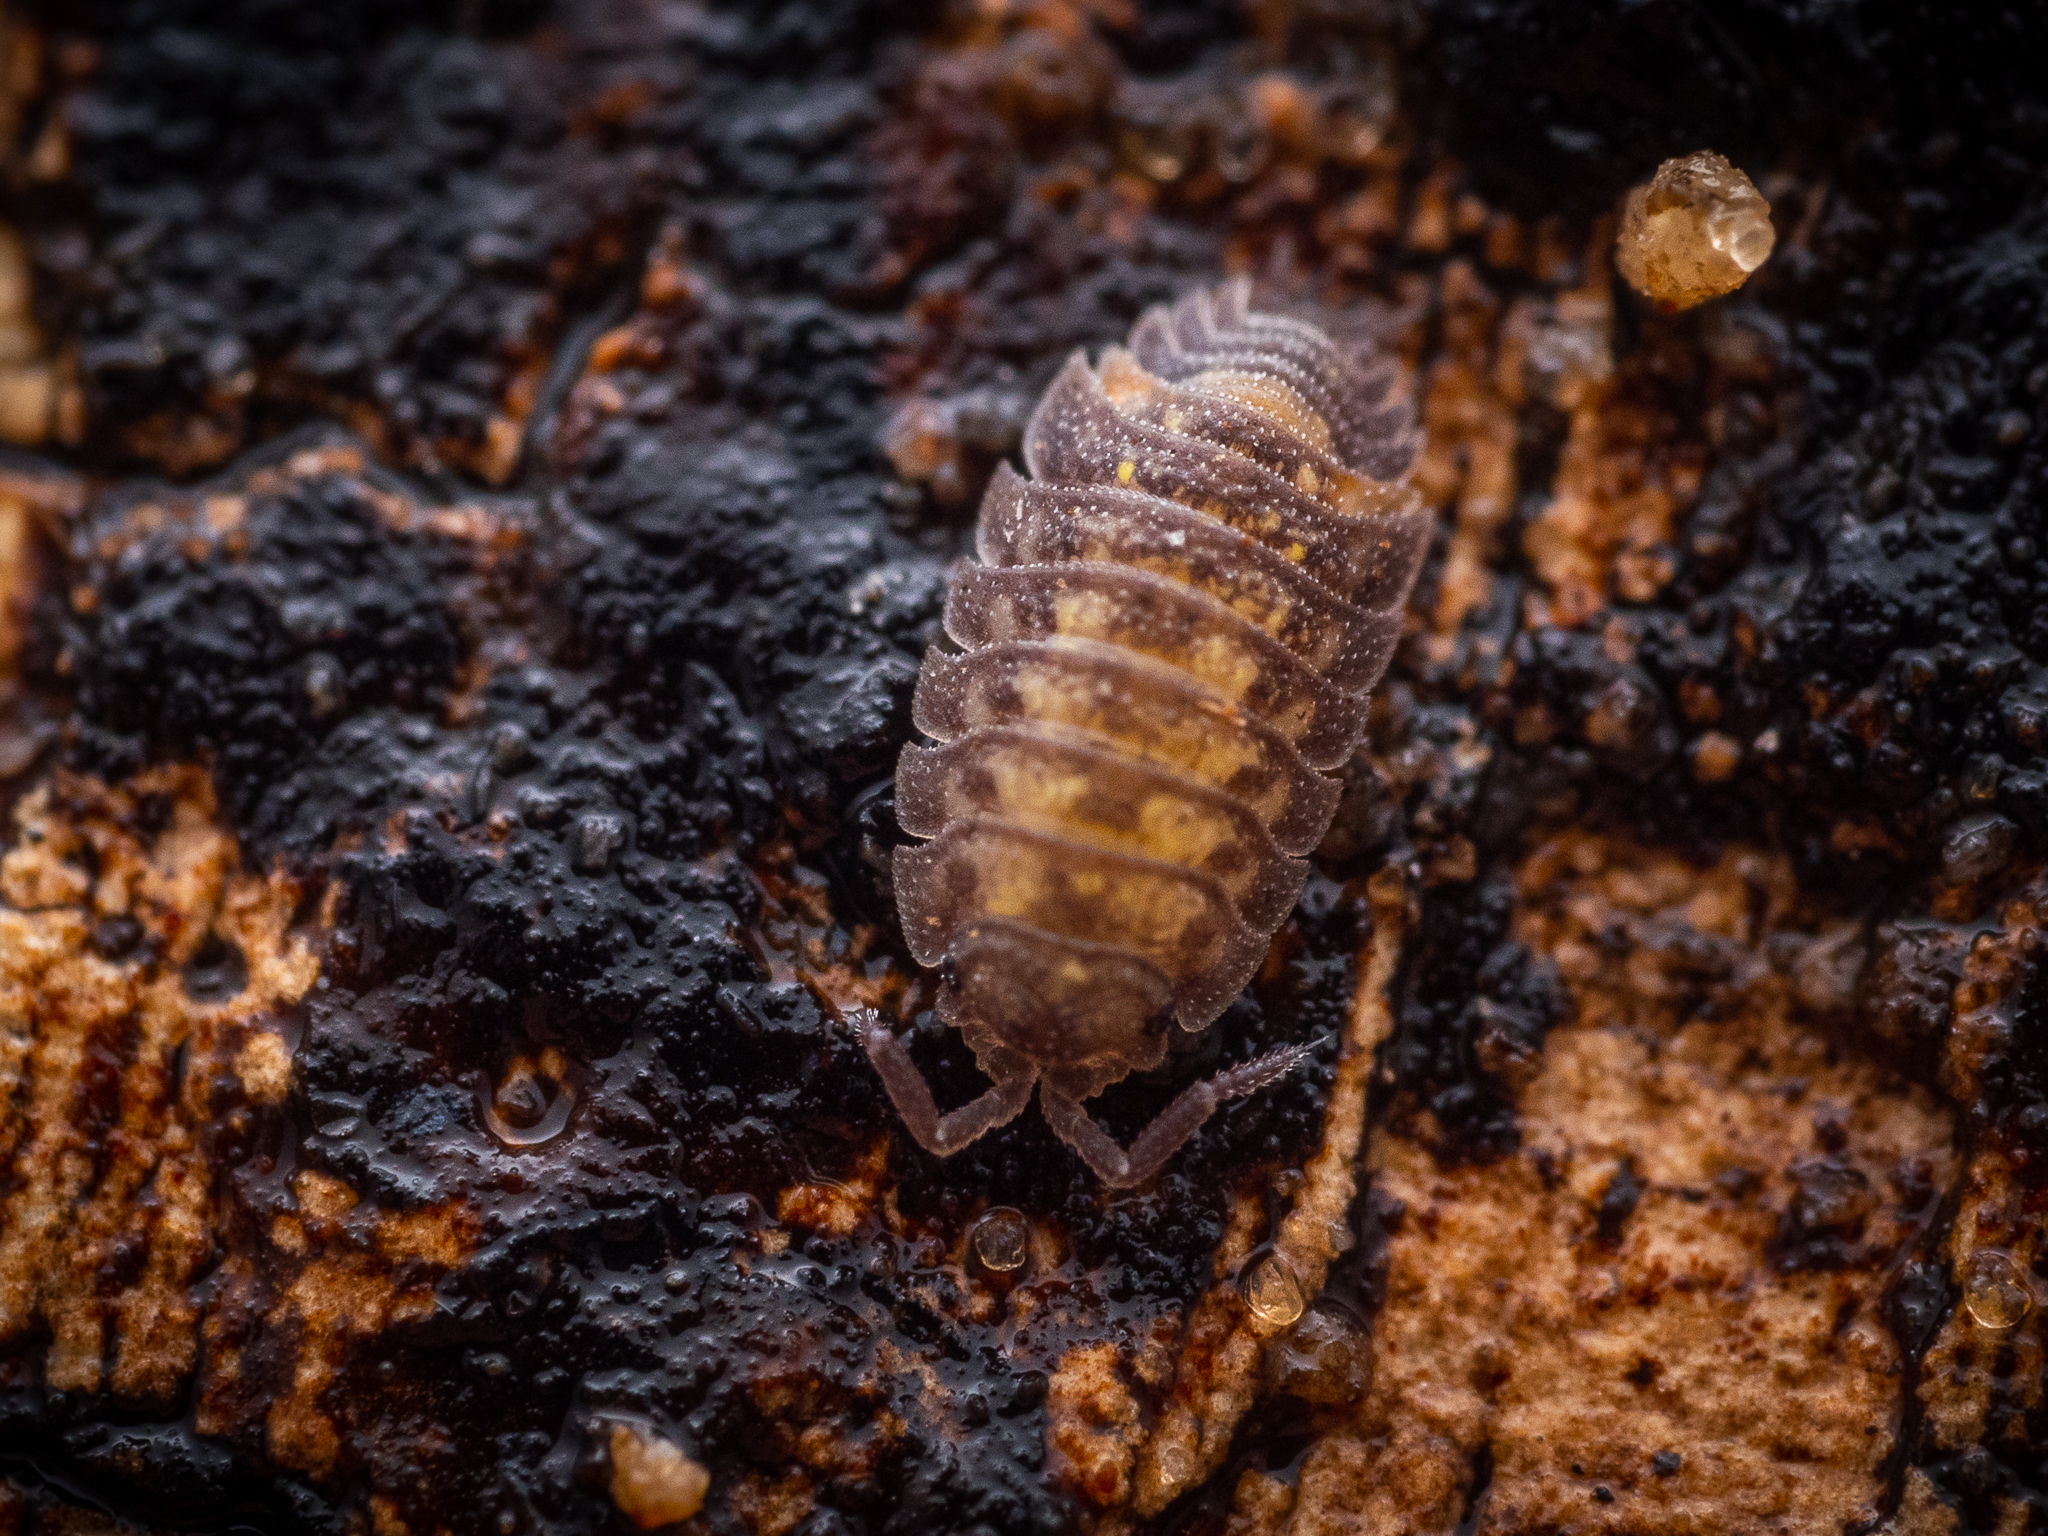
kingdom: Animalia
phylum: Arthropoda
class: Malacostraca
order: Isopoda
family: Oniscidae
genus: Oniscus
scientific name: Oniscus asellus
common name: Common shiny woodlouse
